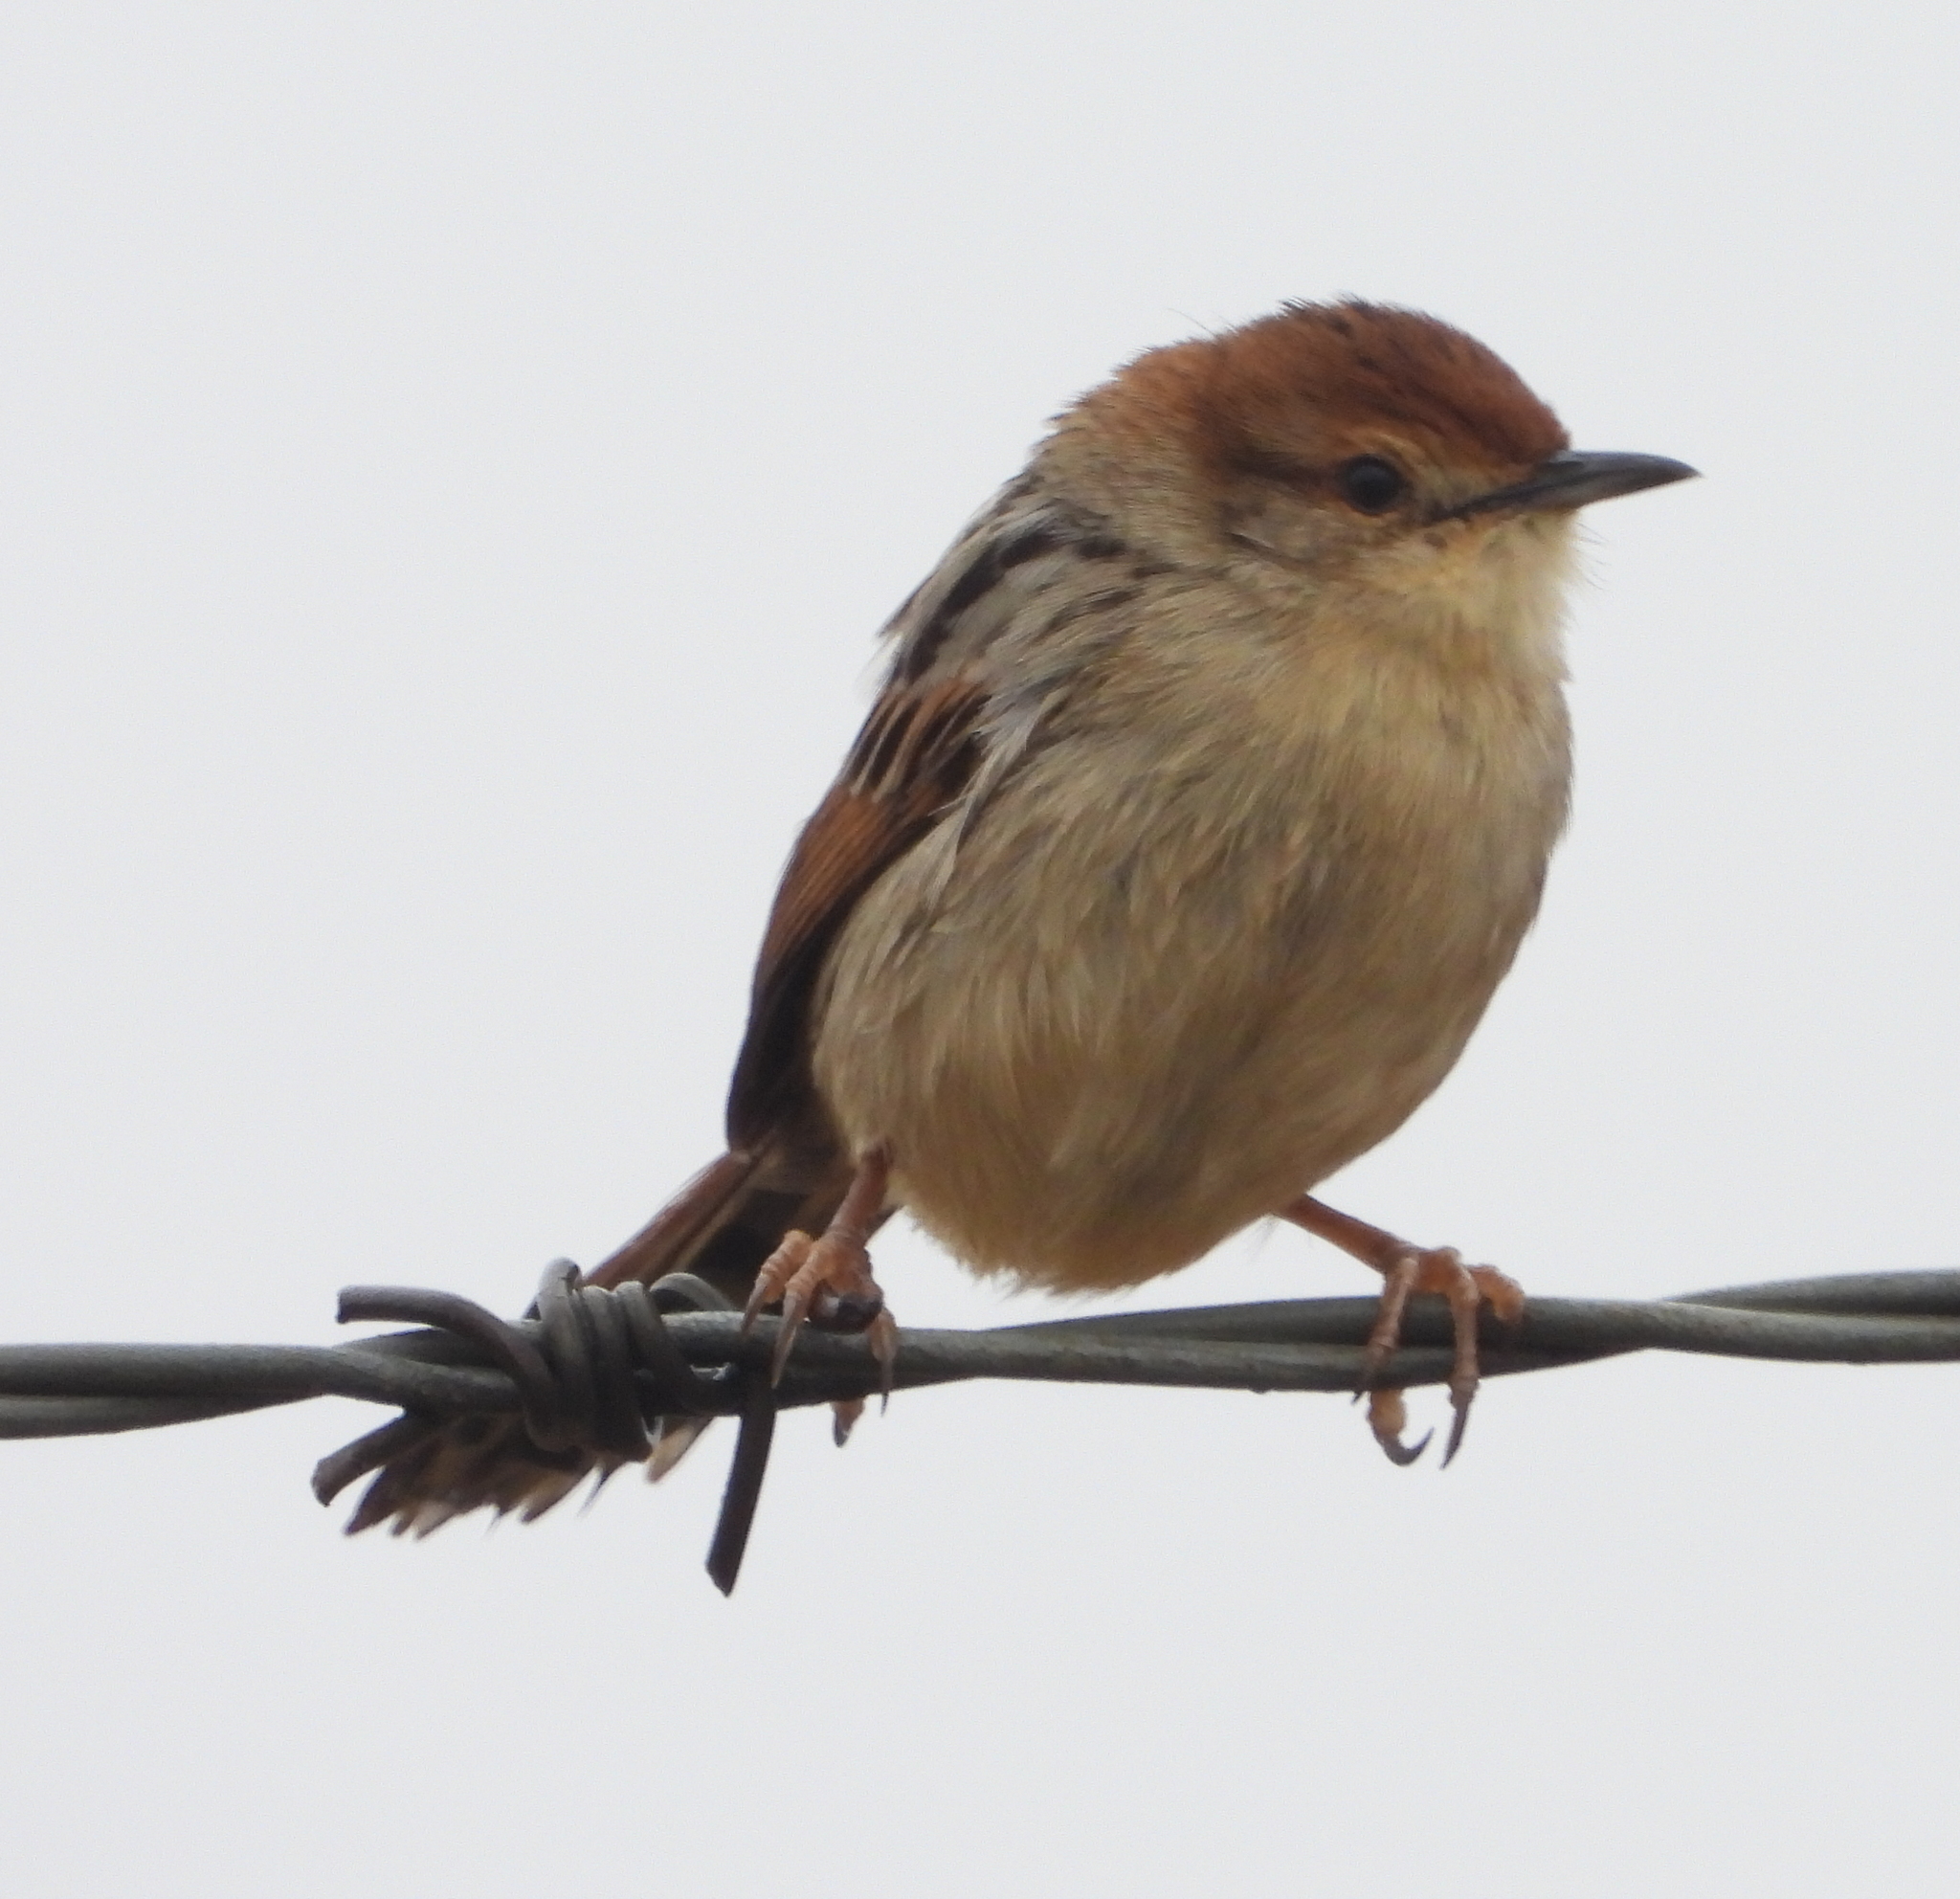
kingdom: Animalia
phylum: Chordata
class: Aves
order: Passeriformes
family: Cisticolidae
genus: Cisticola
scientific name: Cisticola tinniens
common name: Levaillant's cisticola
